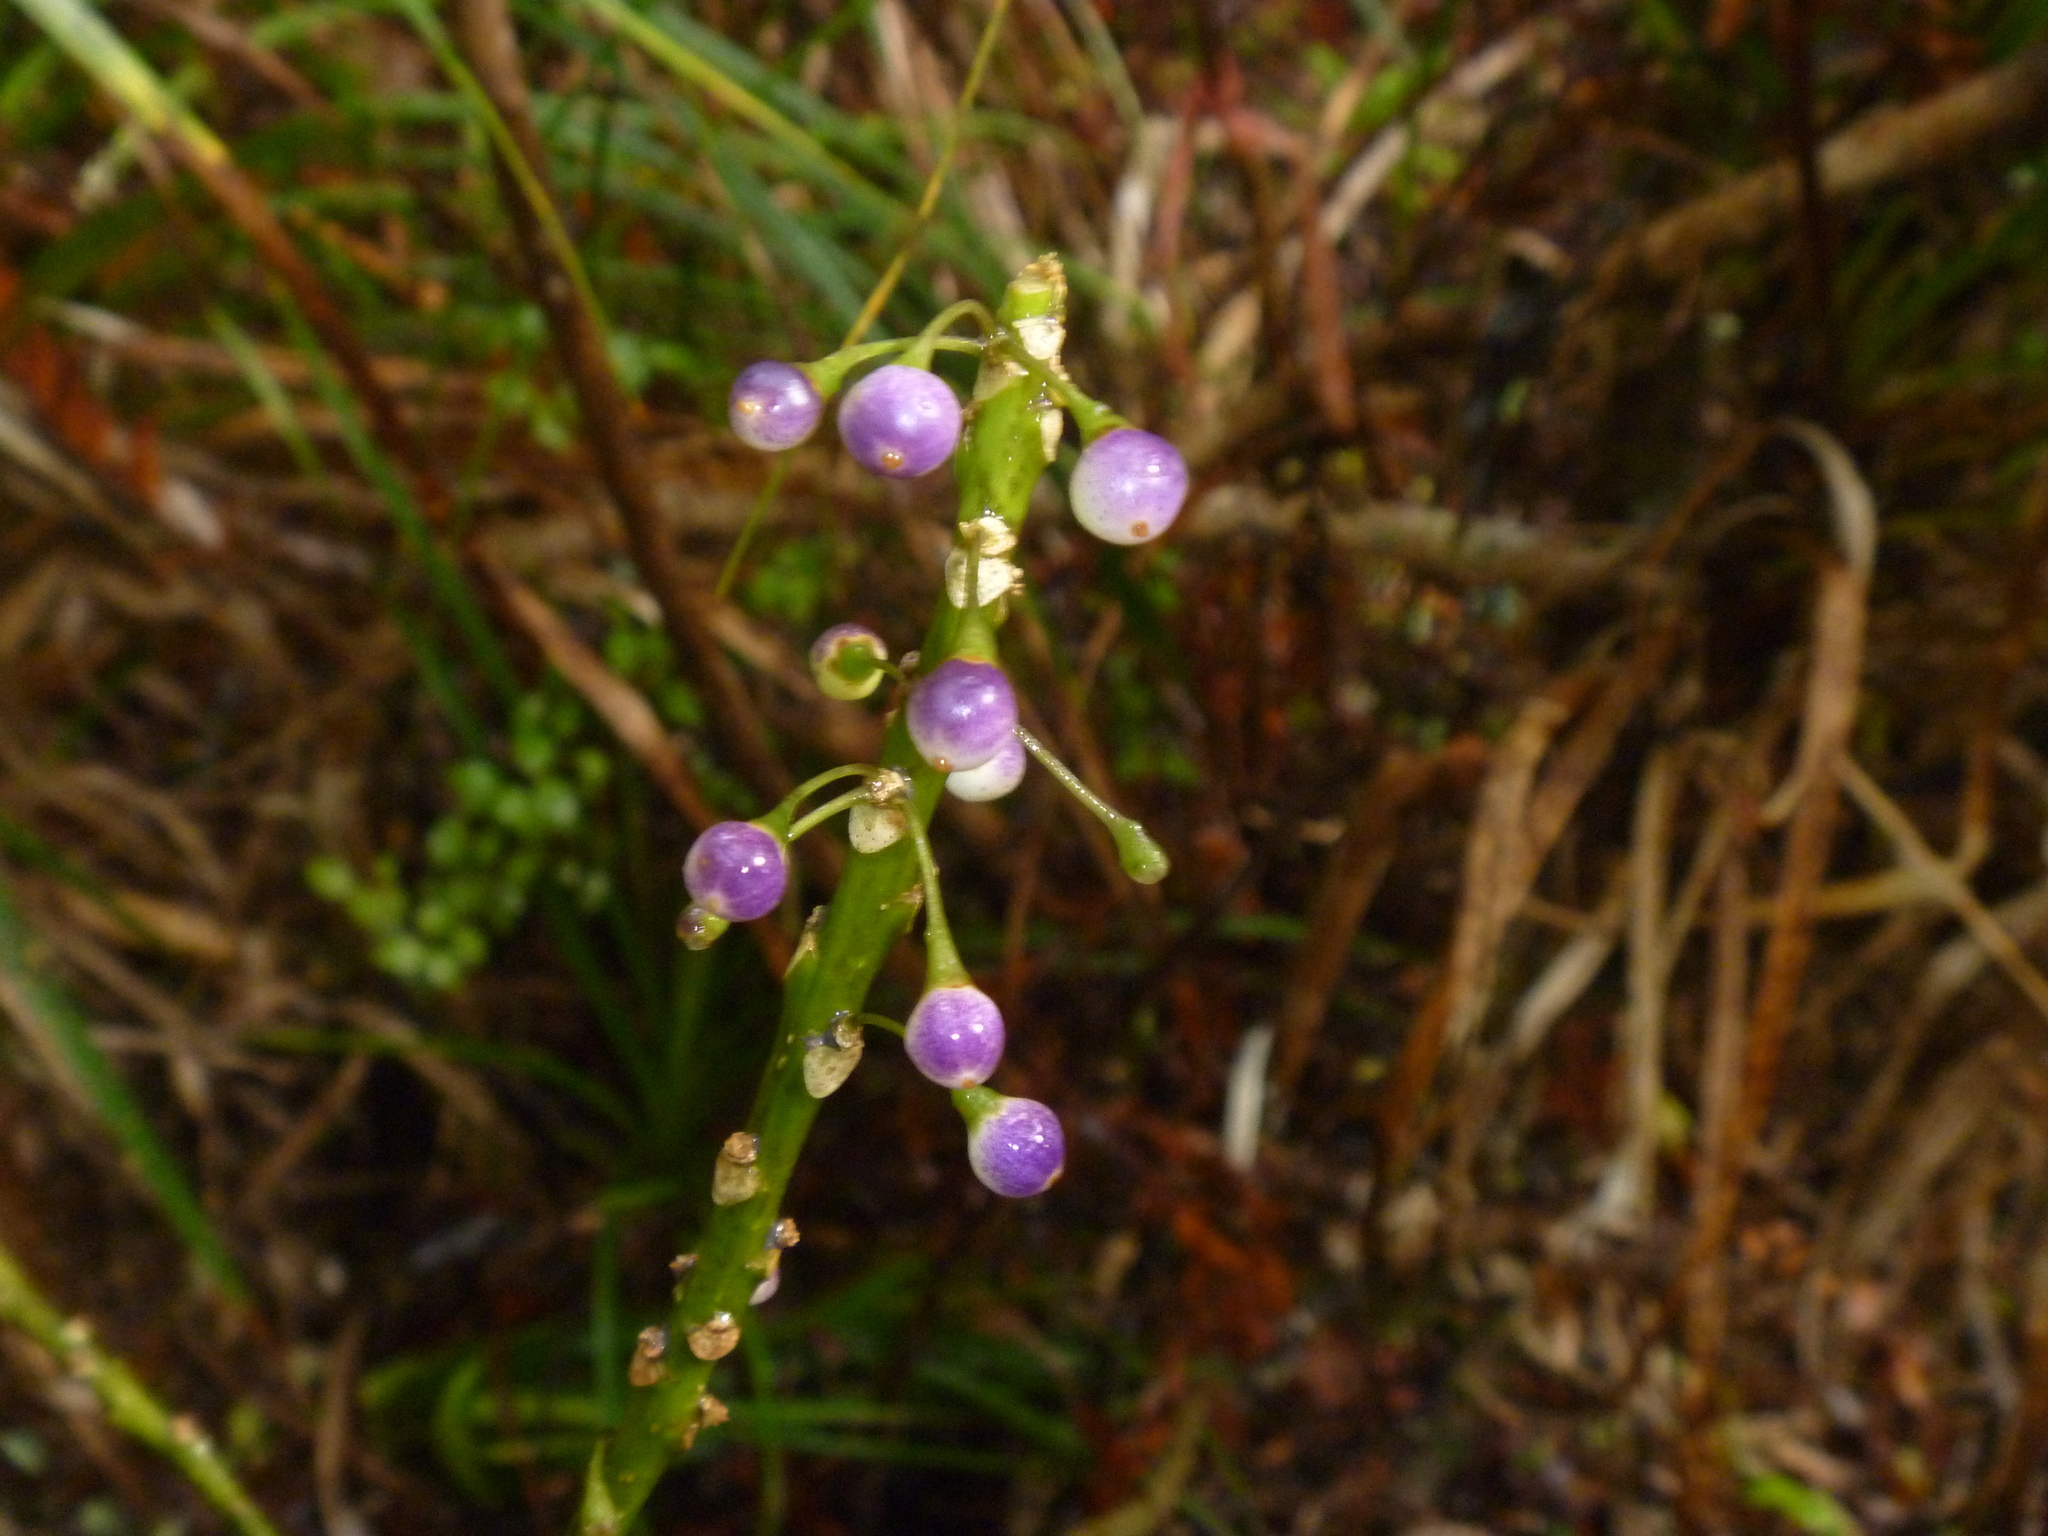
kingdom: Plantae
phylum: Tracheophyta
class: Magnoliopsida
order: Malpighiales
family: Violaceae
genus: Melicytus
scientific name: Melicytus macrophyllus
